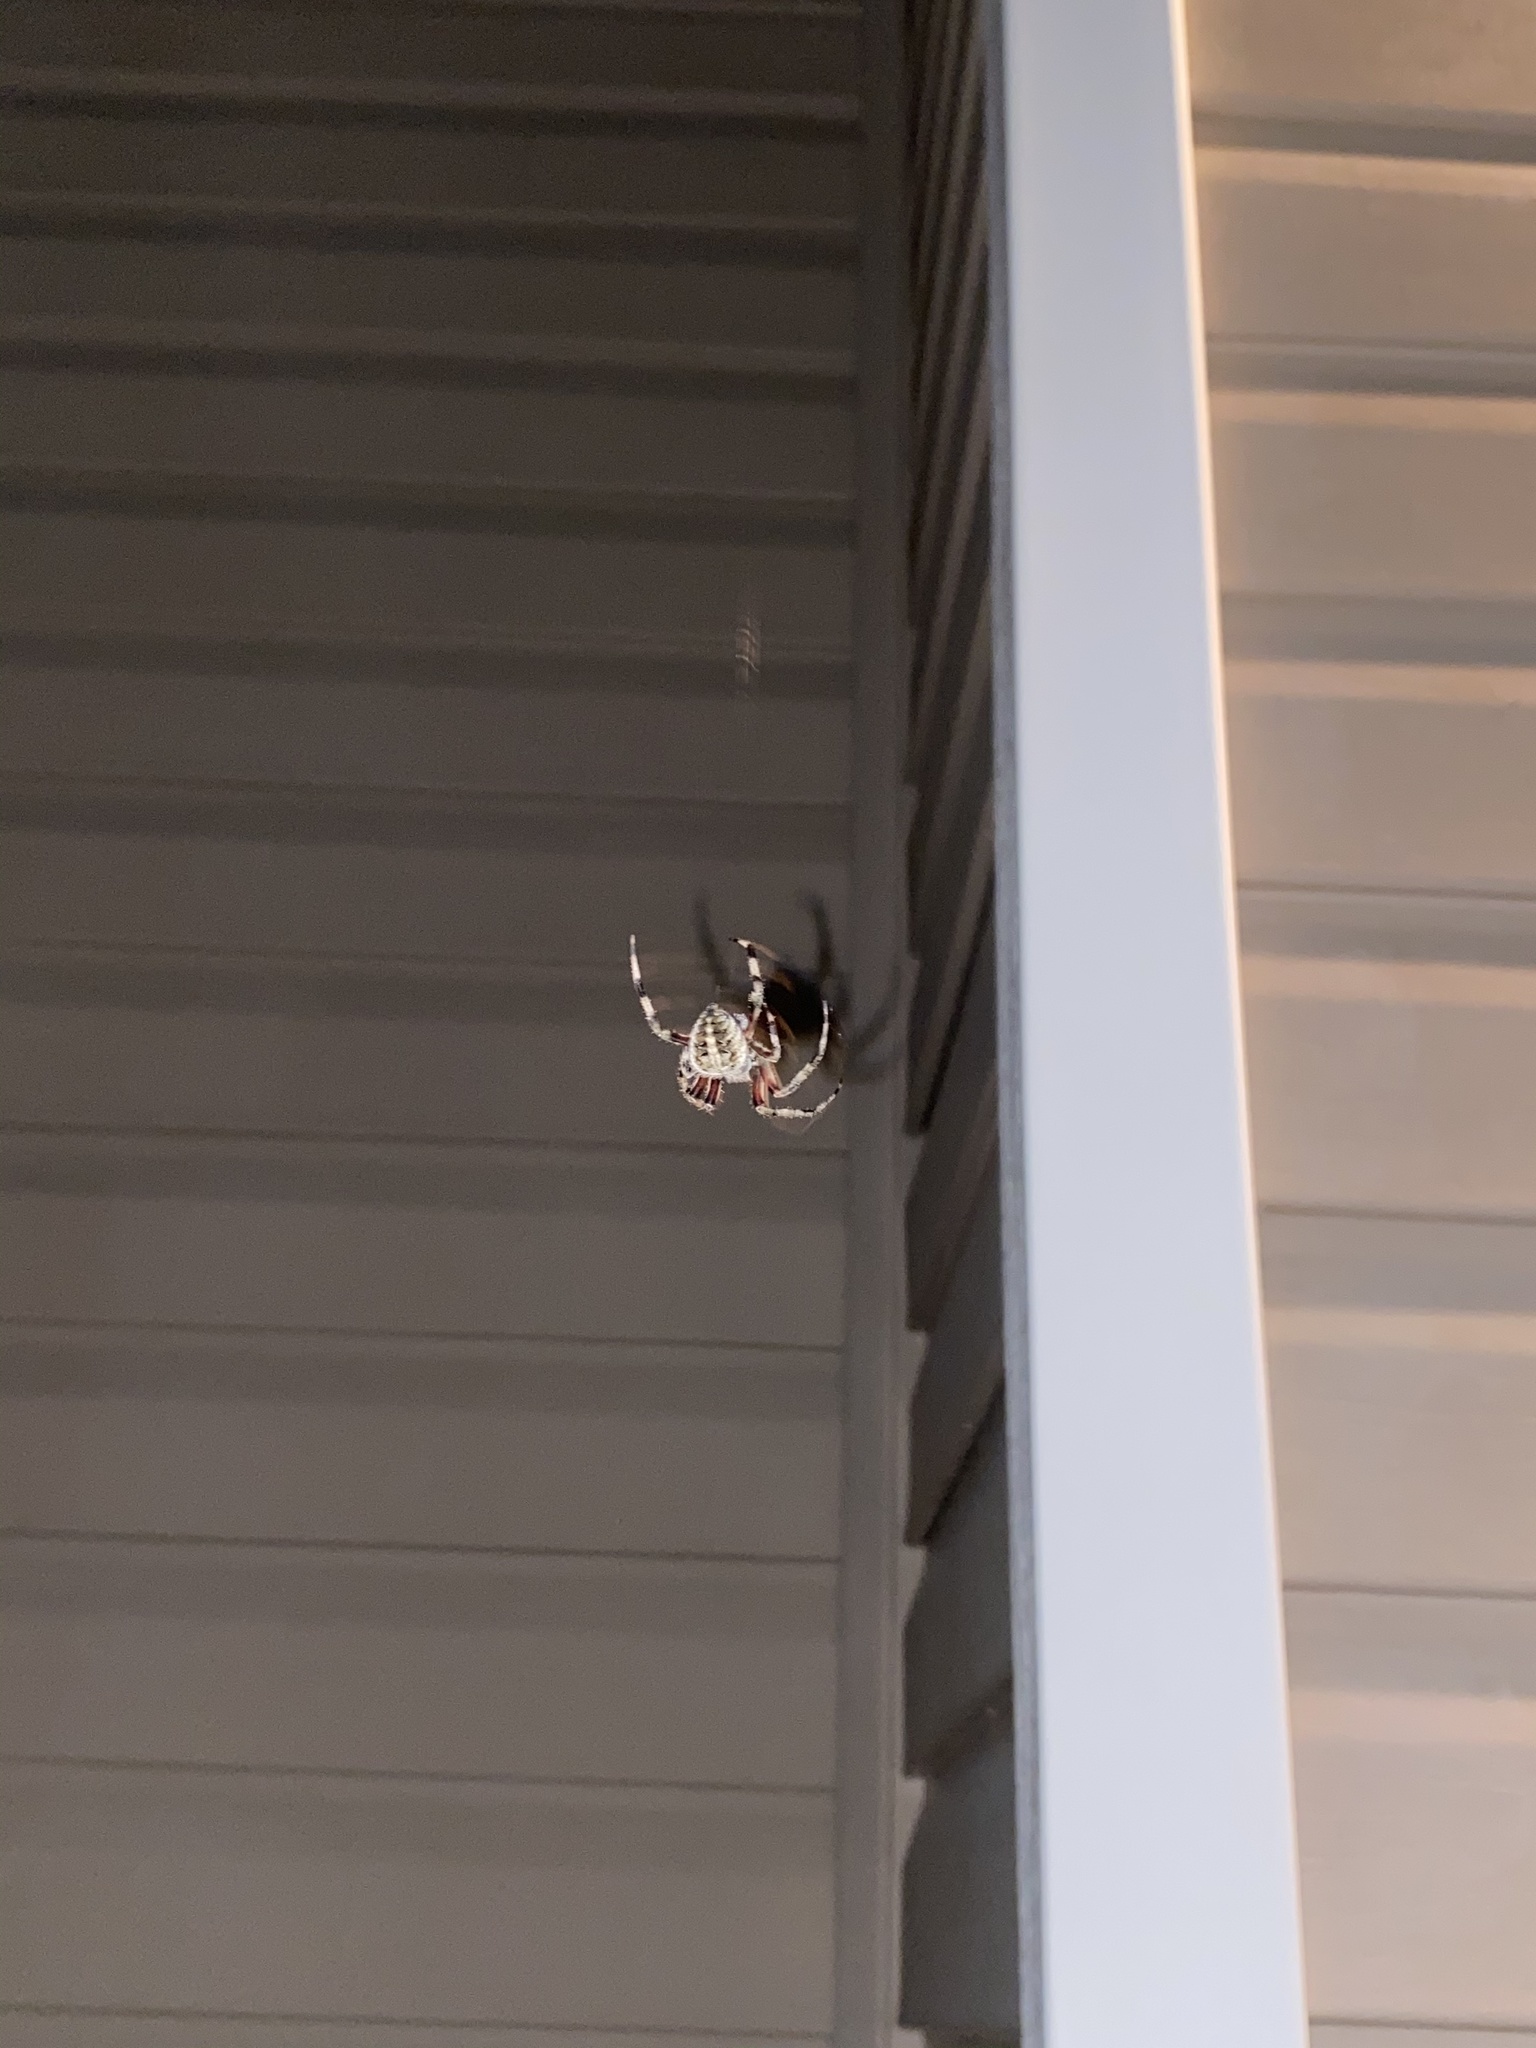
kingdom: Animalia
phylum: Arthropoda
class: Arachnida
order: Araneae
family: Araneidae
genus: Neoscona
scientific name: Neoscona domiciliorum
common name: Red-femured spotted orbweaver
